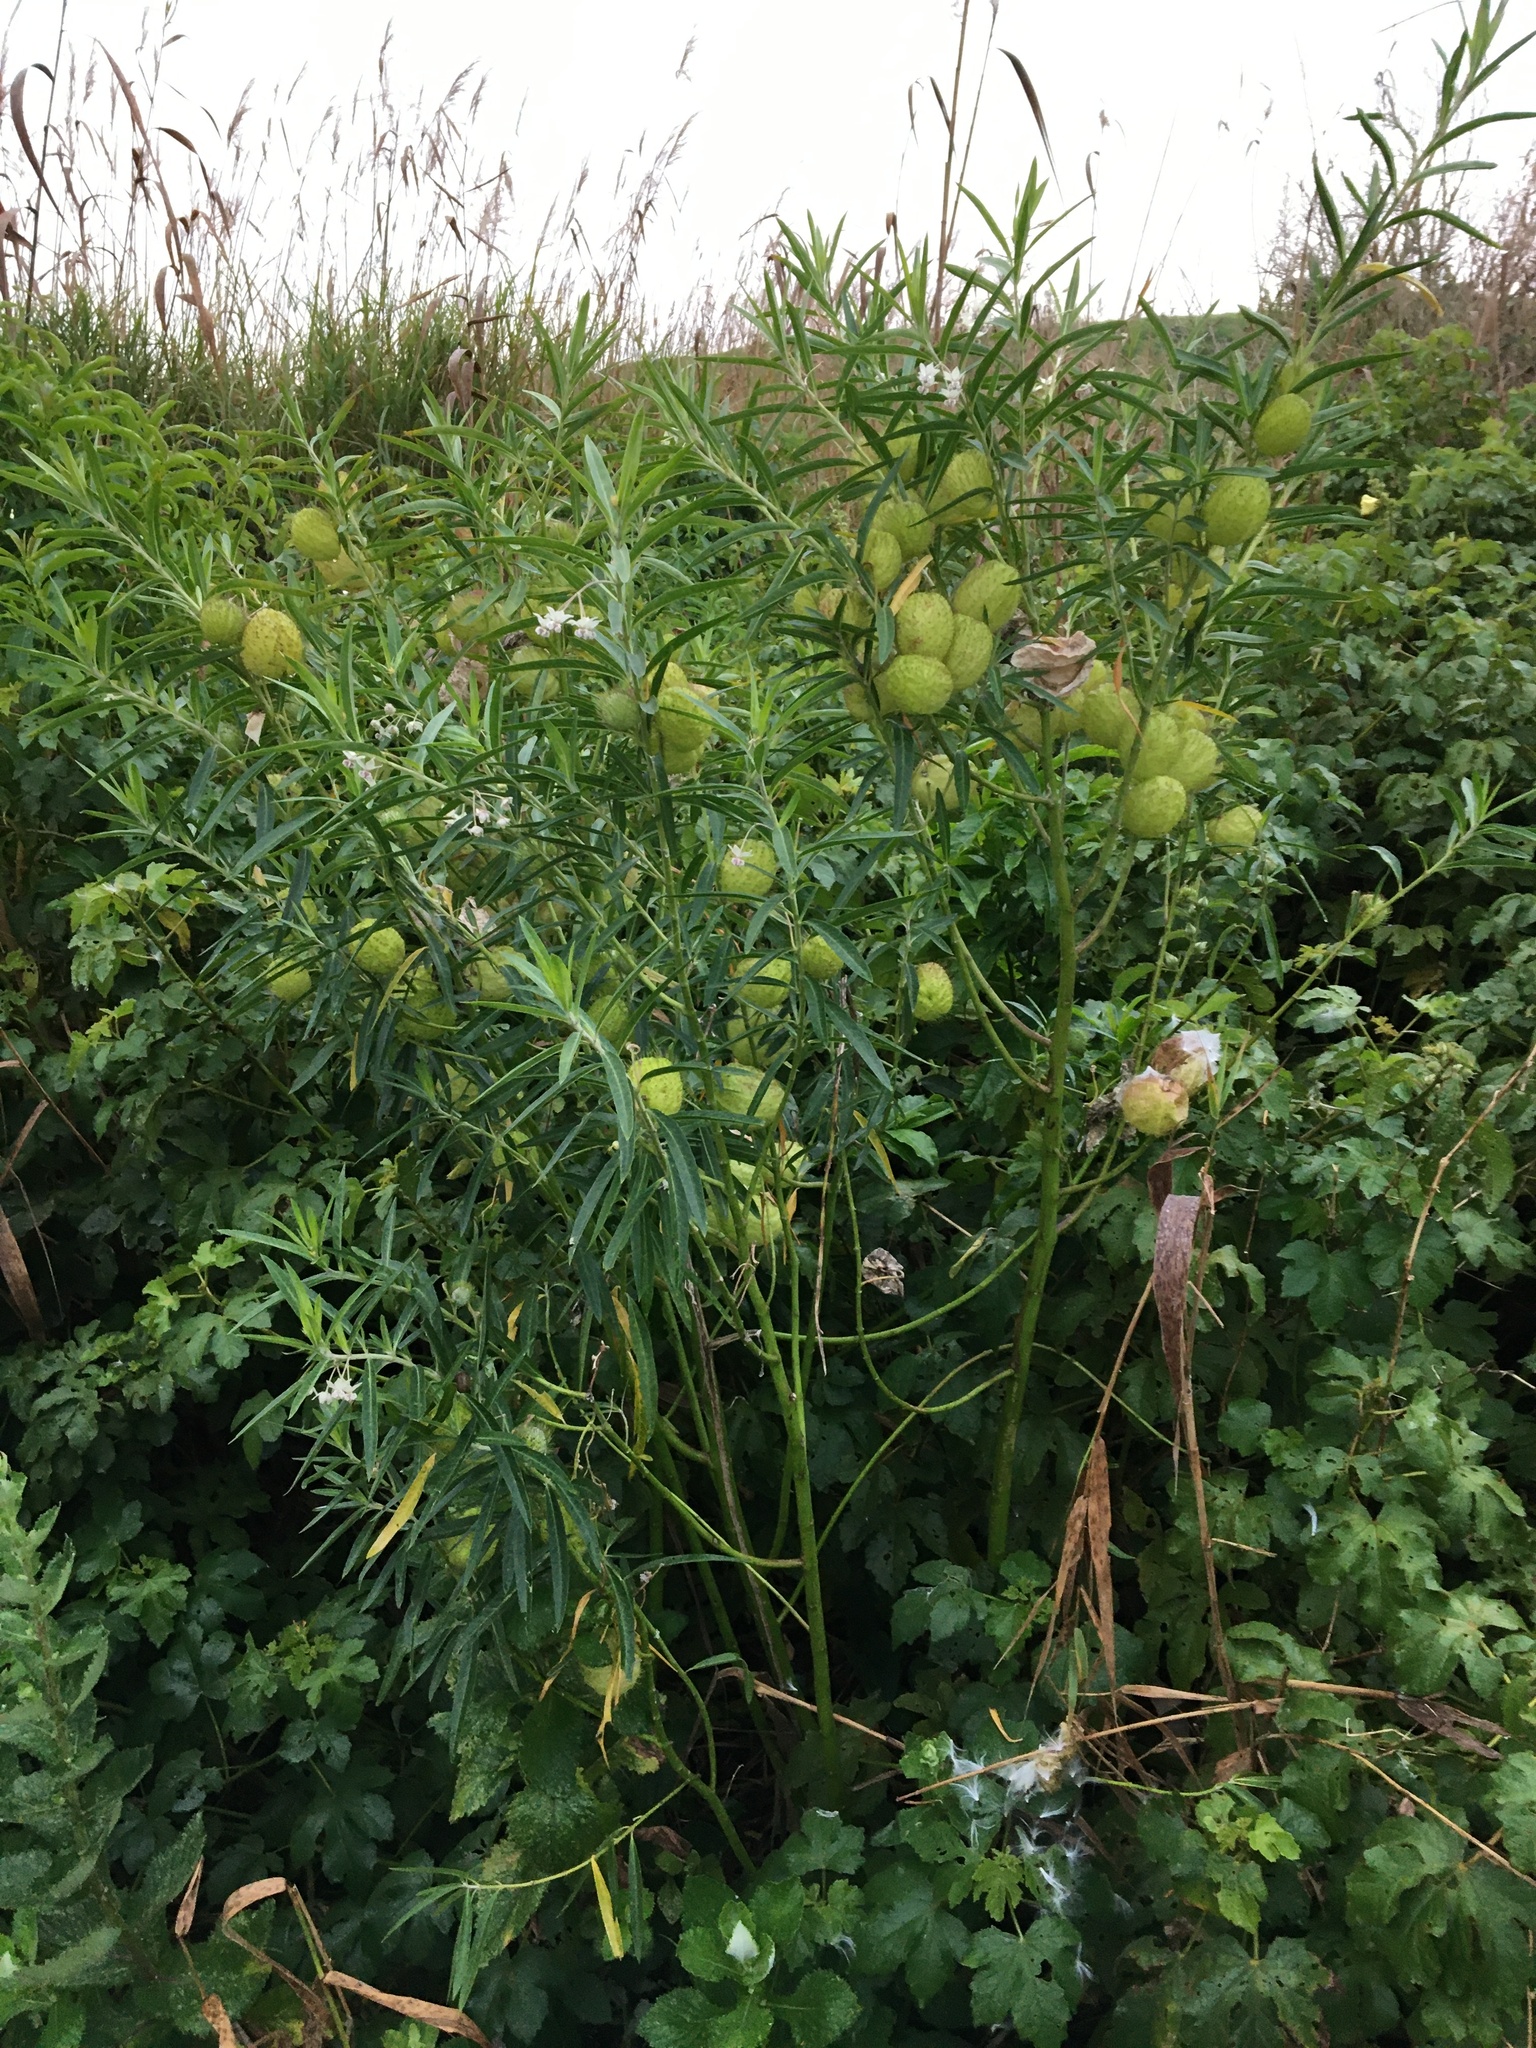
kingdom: Plantae
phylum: Tracheophyta
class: Magnoliopsida
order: Gentianales
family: Apocynaceae
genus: Gomphocarpus
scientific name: Gomphocarpus physocarpus
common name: Balloon cotton bush
